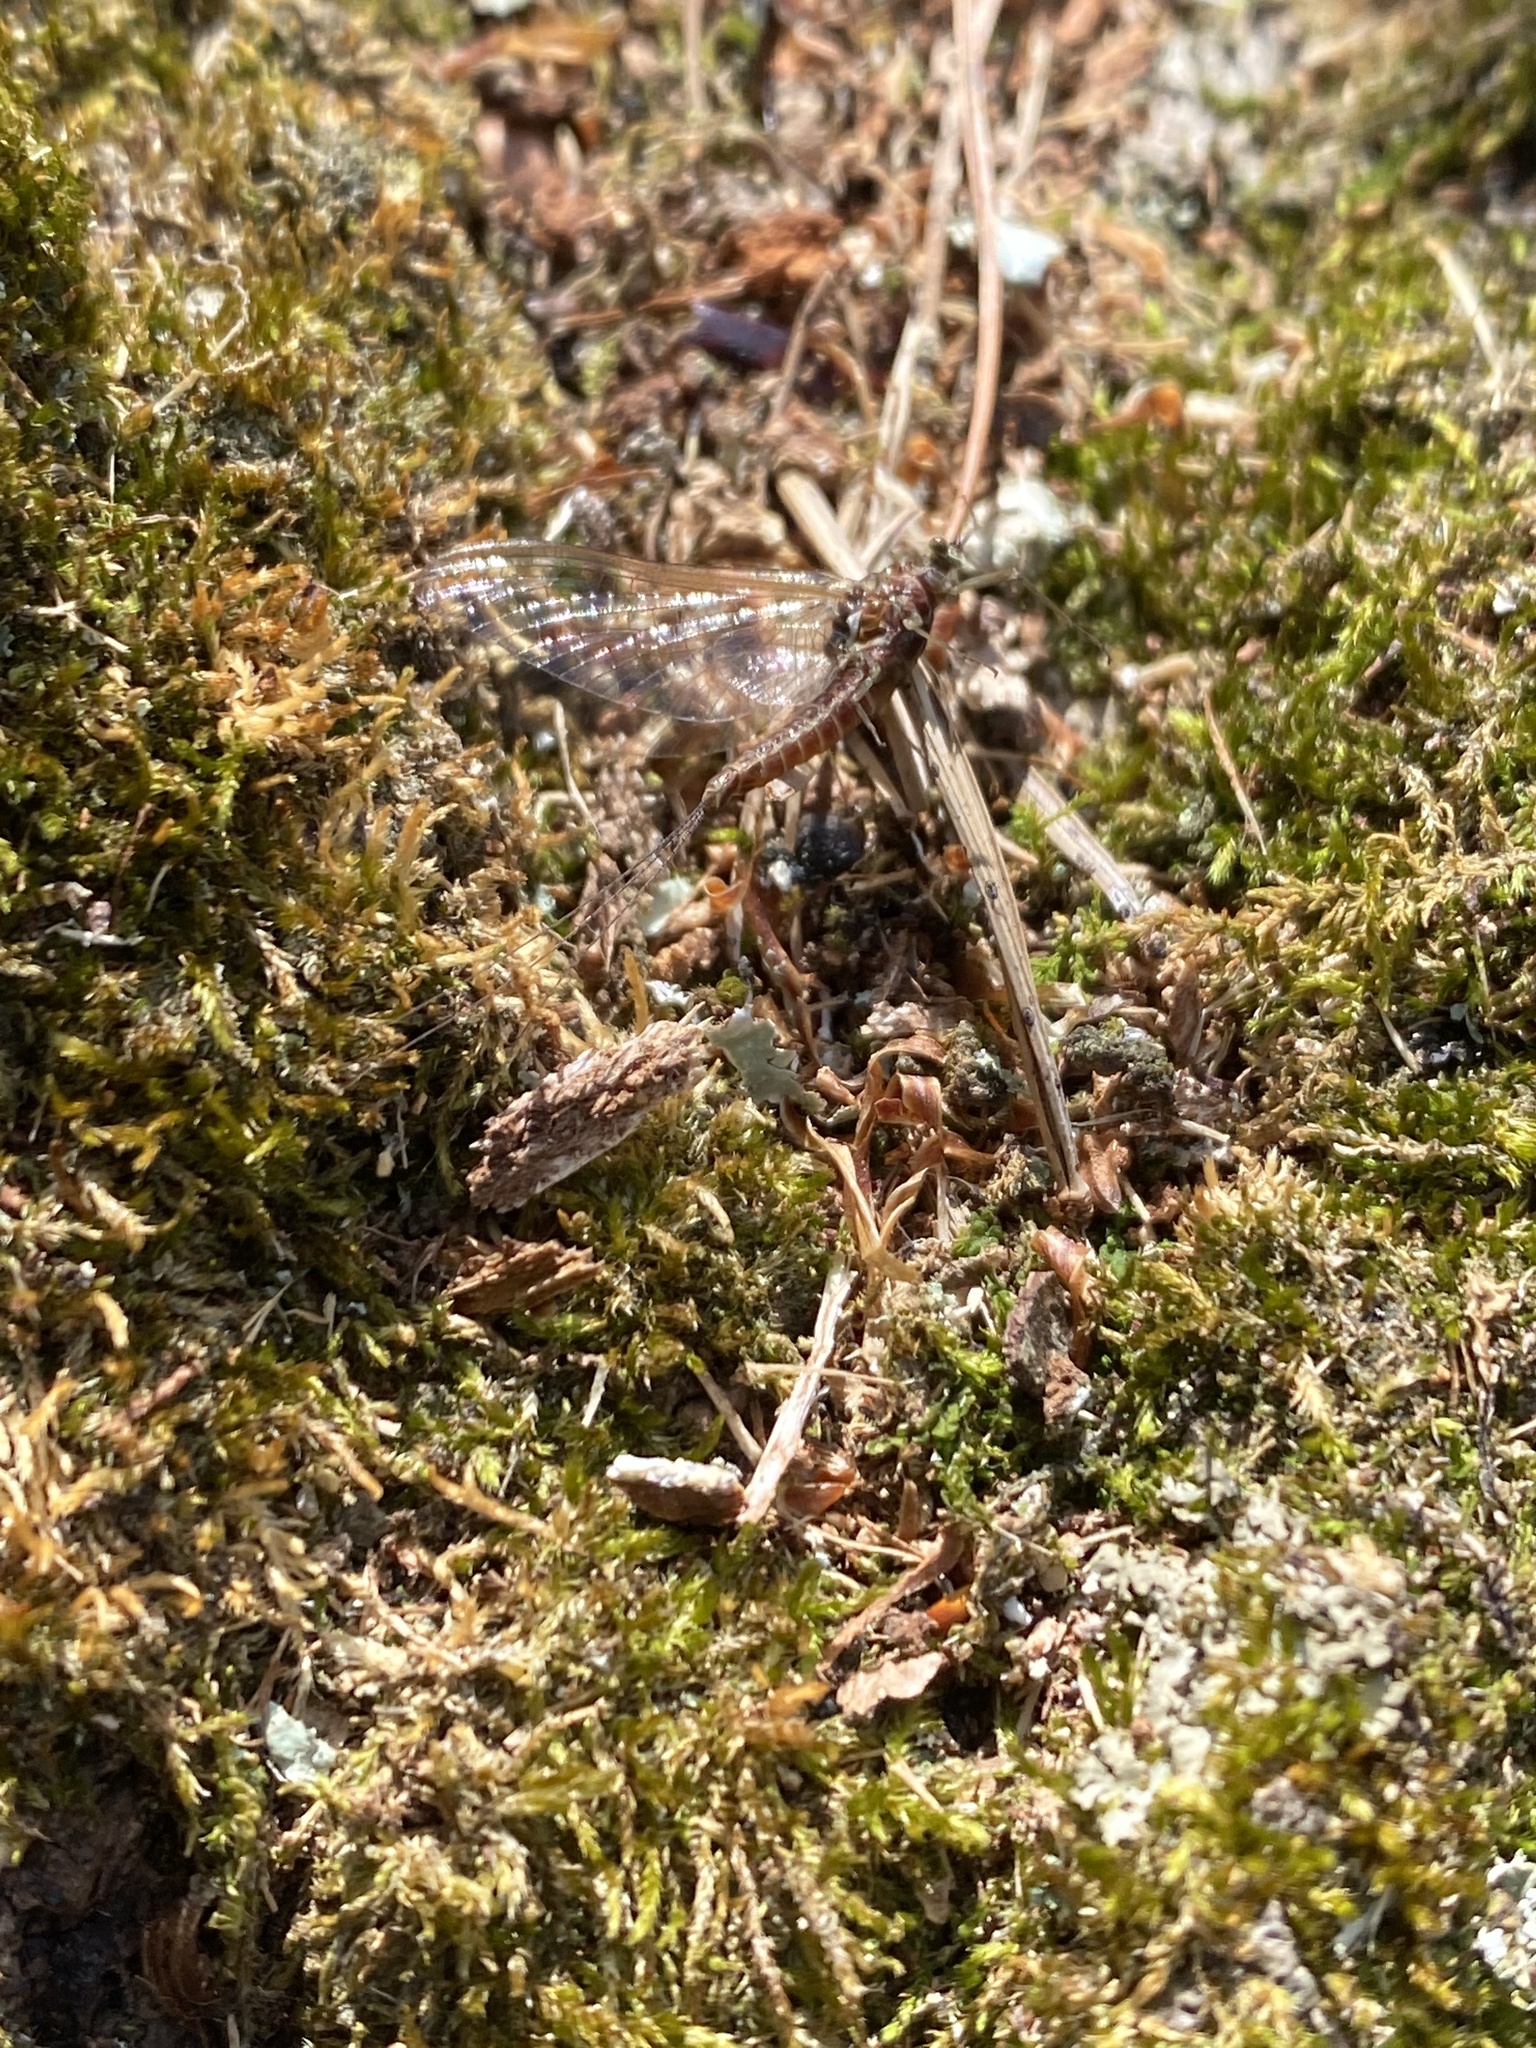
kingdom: Animalia
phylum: Arthropoda
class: Insecta
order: Ephemeroptera
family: Ephemerellidae
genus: Ephemerella
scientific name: Ephemerella subvaria
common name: Dark hendrickson
